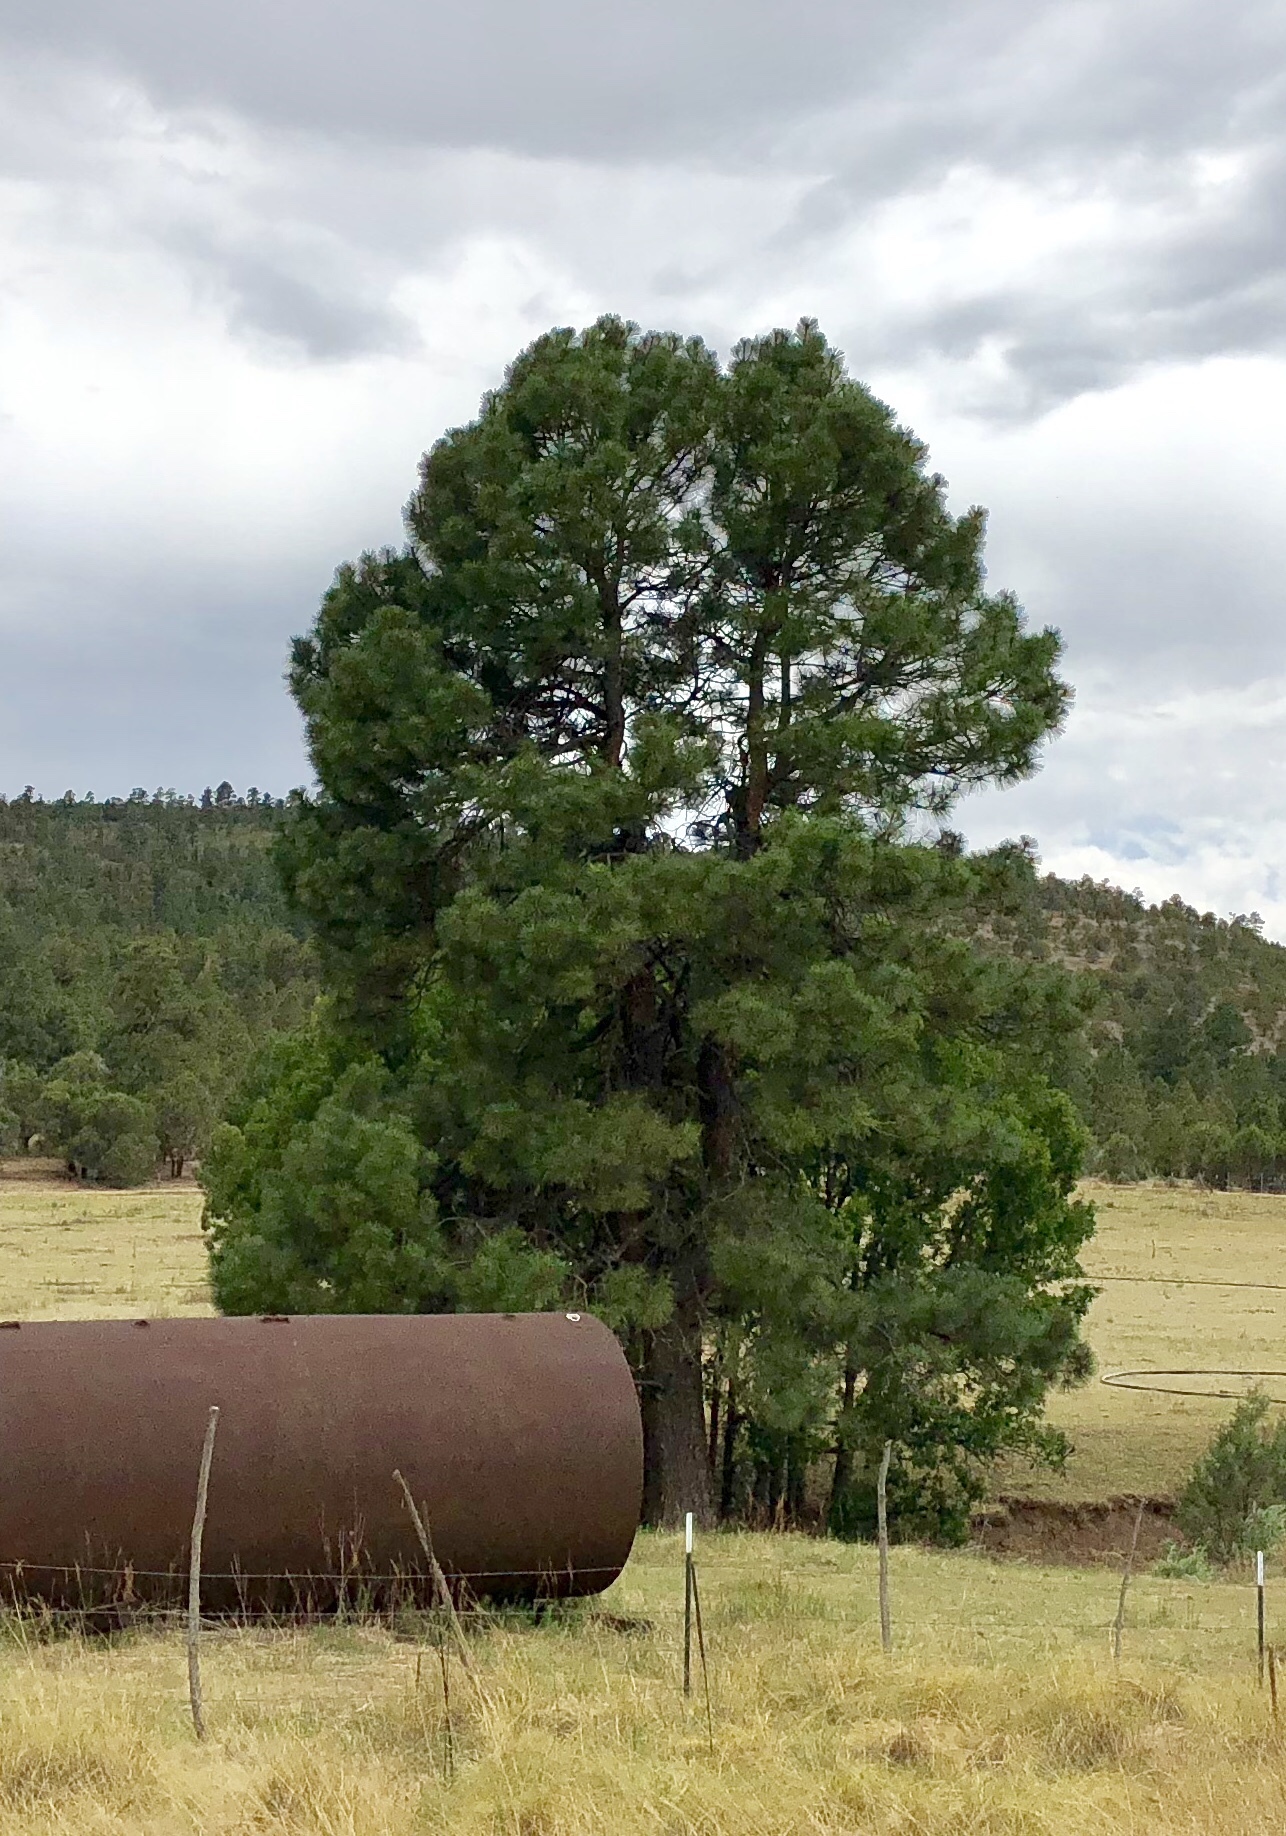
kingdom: Plantae
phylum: Tracheophyta
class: Pinopsida
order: Pinales
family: Pinaceae
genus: Pinus
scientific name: Pinus ponderosa
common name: Western yellow-pine
